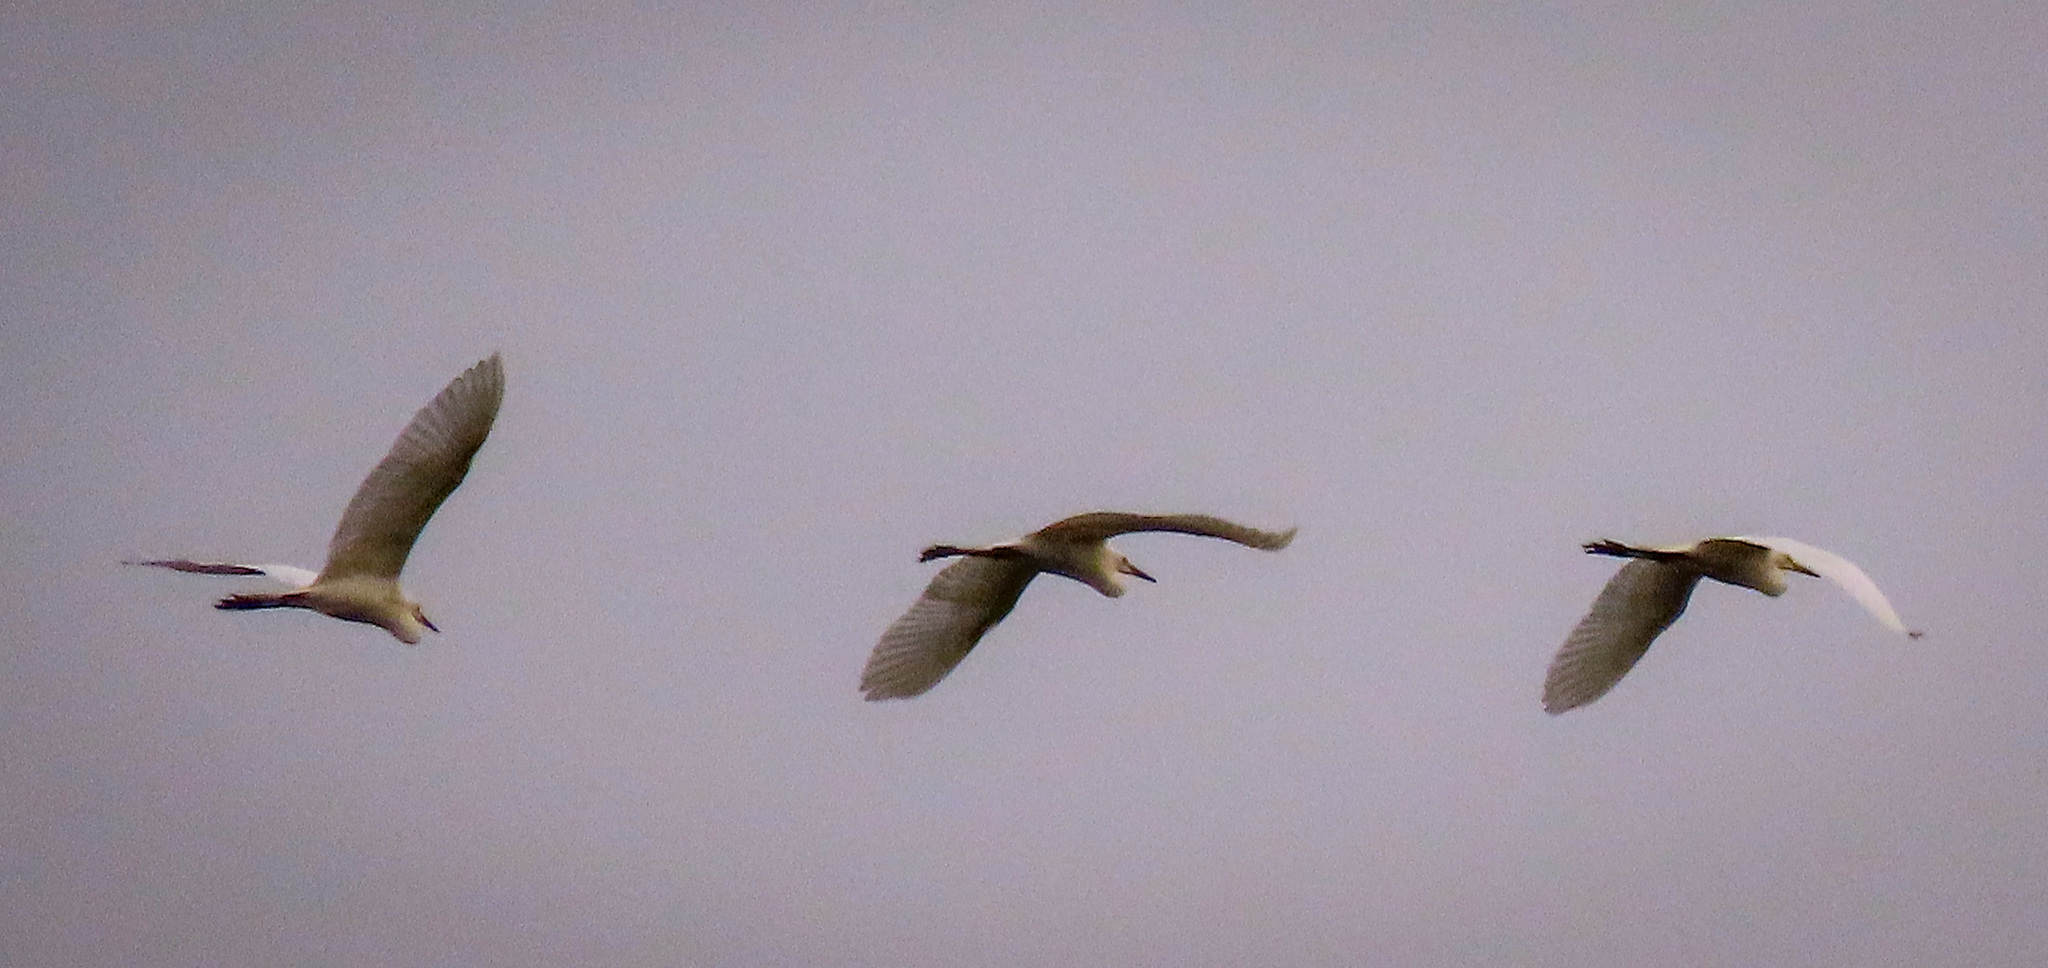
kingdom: Animalia
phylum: Chordata
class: Aves
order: Pelecaniformes
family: Ardeidae
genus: Egretta
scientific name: Egretta intermedia
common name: Intermediate egret
